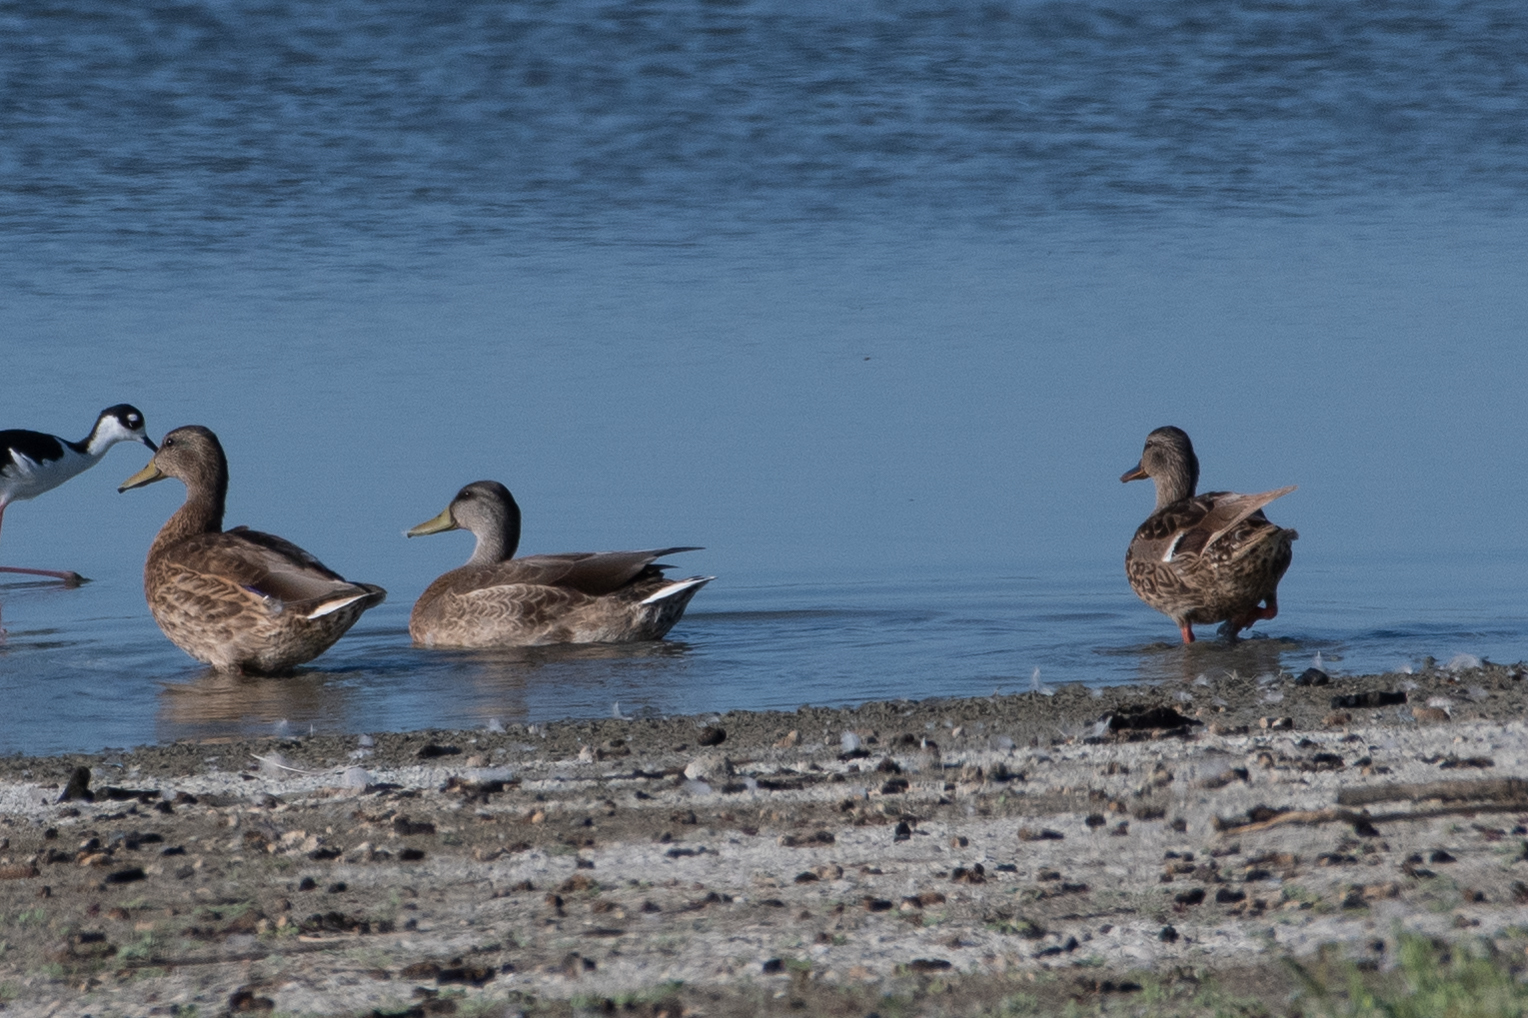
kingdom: Animalia
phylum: Chordata
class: Aves
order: Anseriformes
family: Anatidae
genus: Anas
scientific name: Anas platyrhynchos
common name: Mallard
